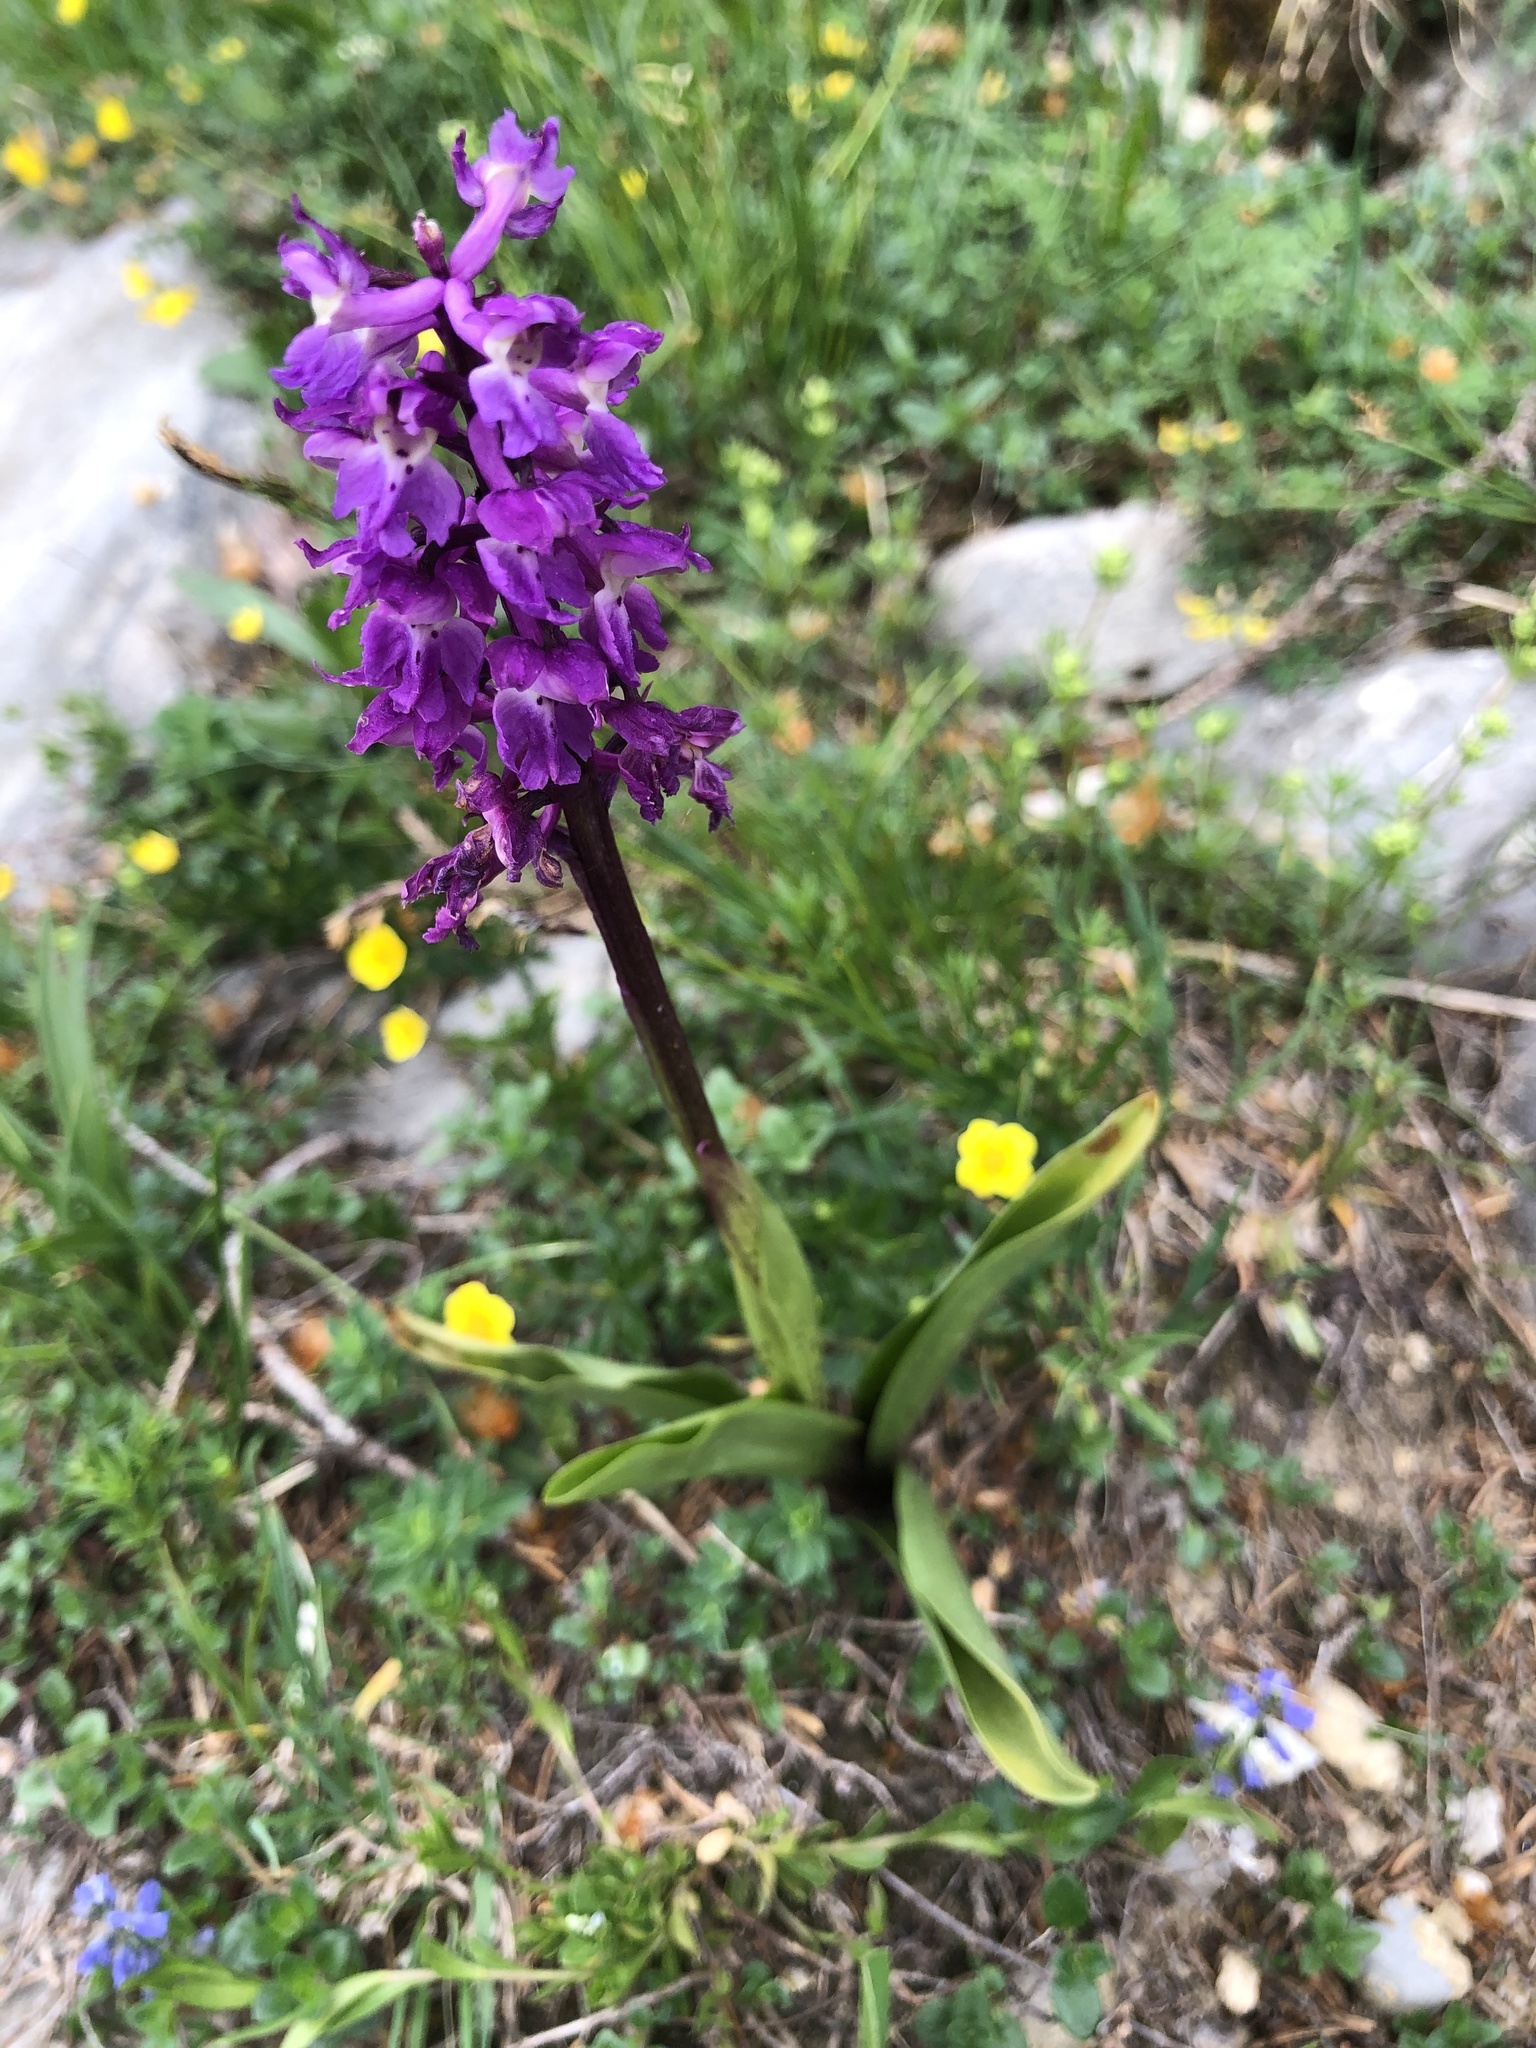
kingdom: Plantae
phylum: Tracheophyta
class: Liliopsida
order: Asparagales
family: Orchidaceae
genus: Orchis
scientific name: Orchis mascula
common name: Early-purple orchid
